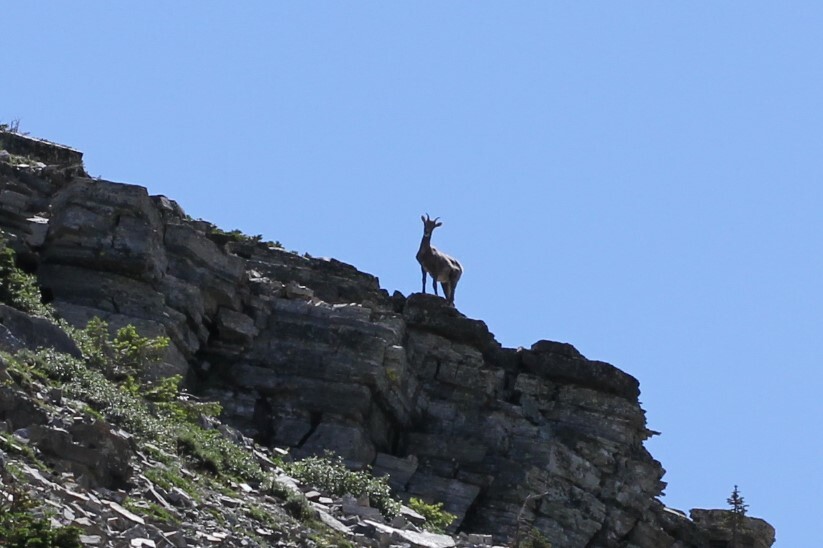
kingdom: Animalia
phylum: Chordata
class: Mammalia
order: Artiodactyla
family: Bovidae
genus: Ovis
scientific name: Ovis canadensis
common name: Bighorn sheep
